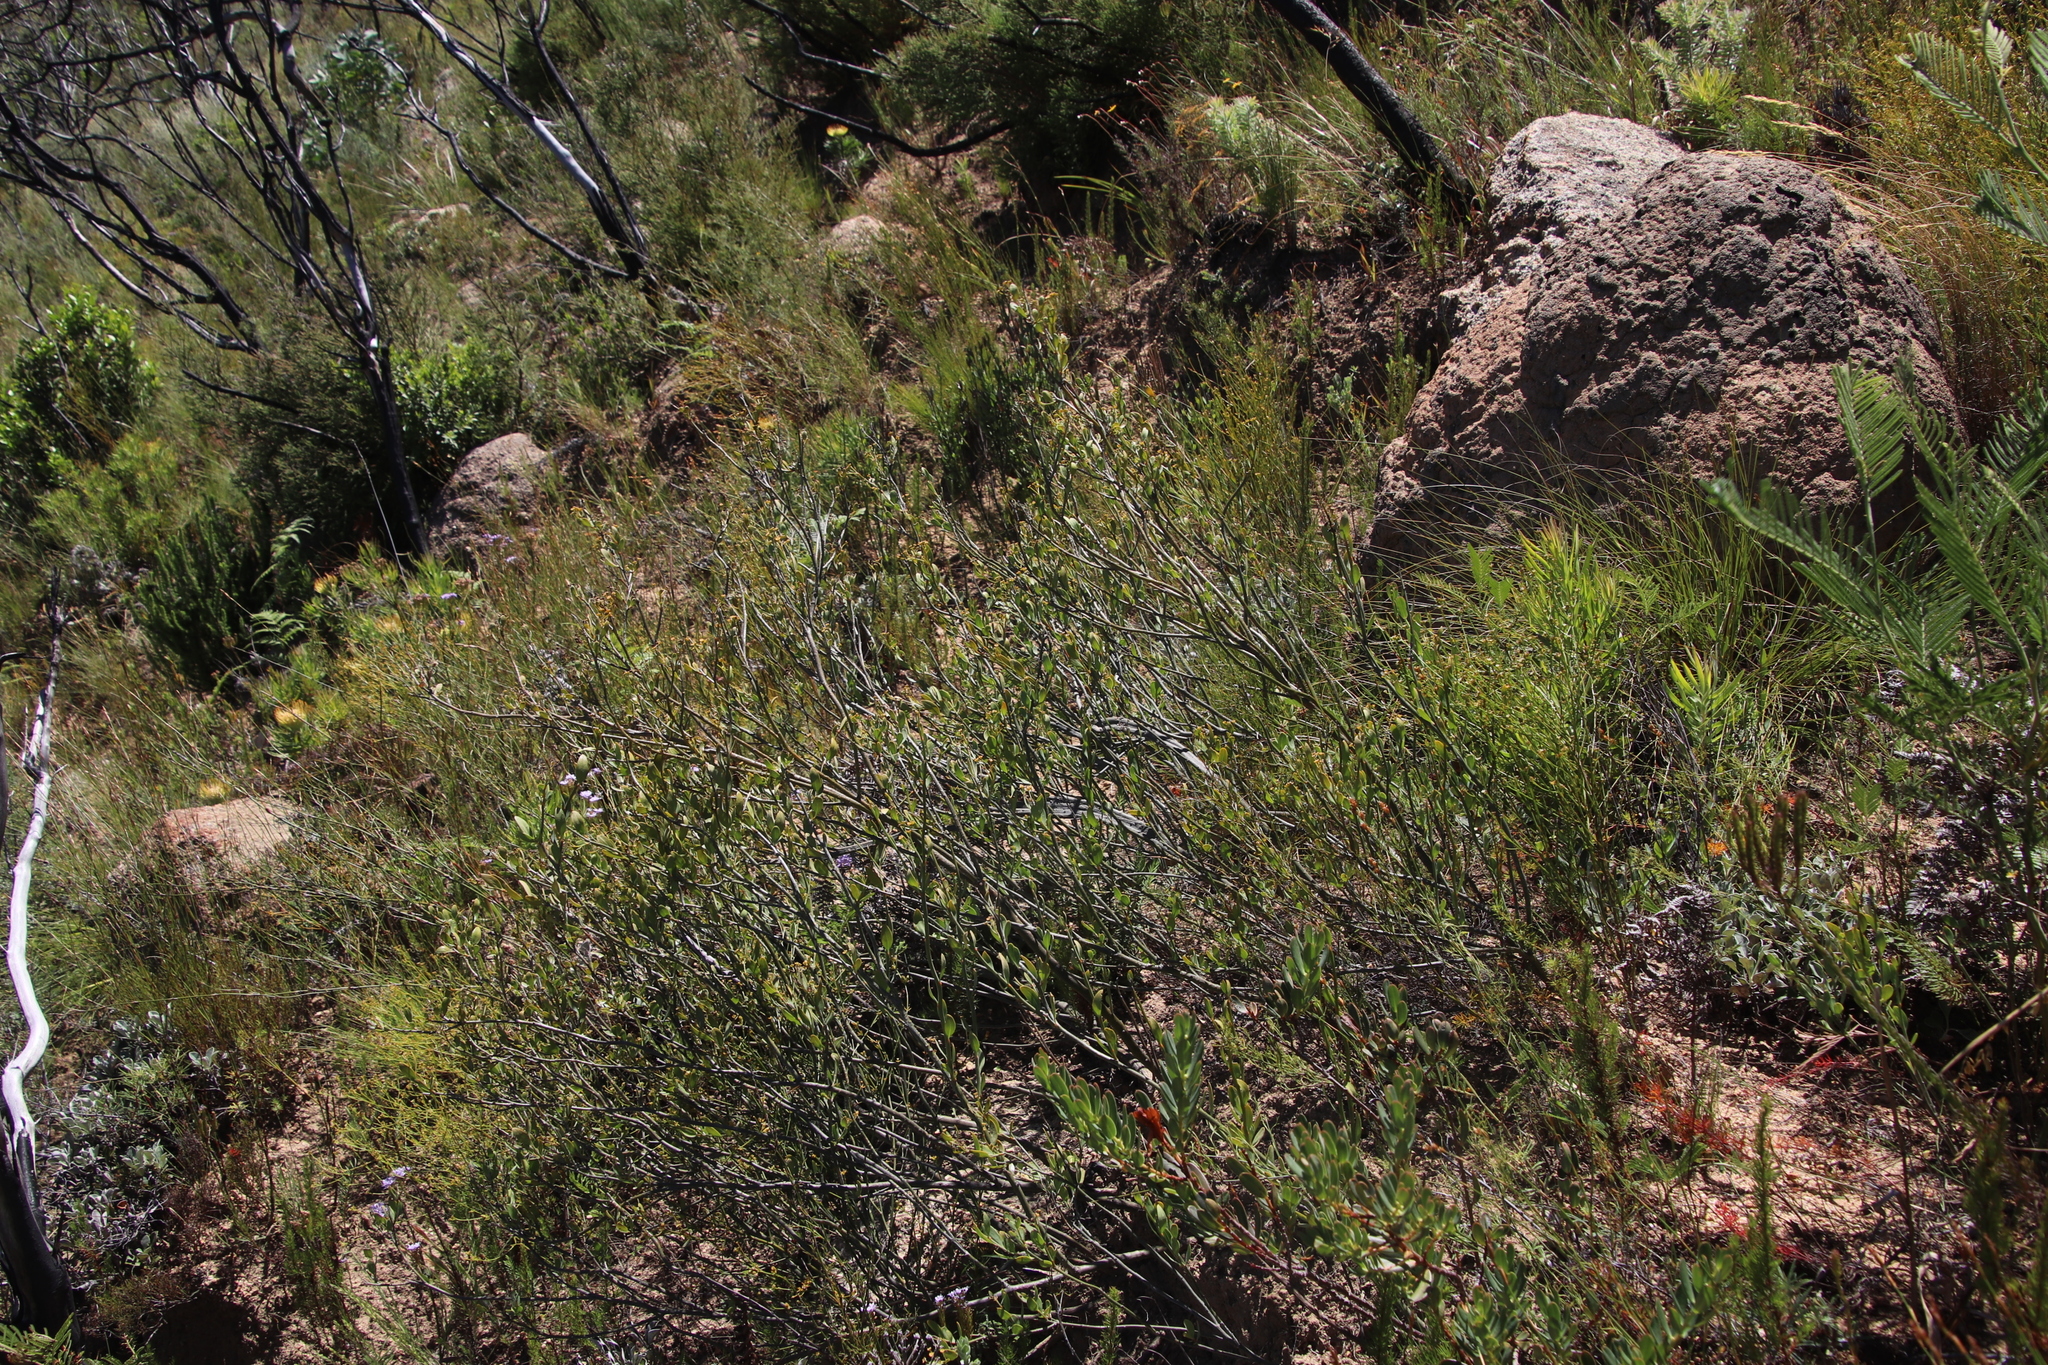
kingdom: Plantae
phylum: Tracheophyta
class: Magnoliopsida
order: Solanales
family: Montiniaceae
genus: Montinia
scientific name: Montinia caryophyllacea
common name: Wild clove-bush
